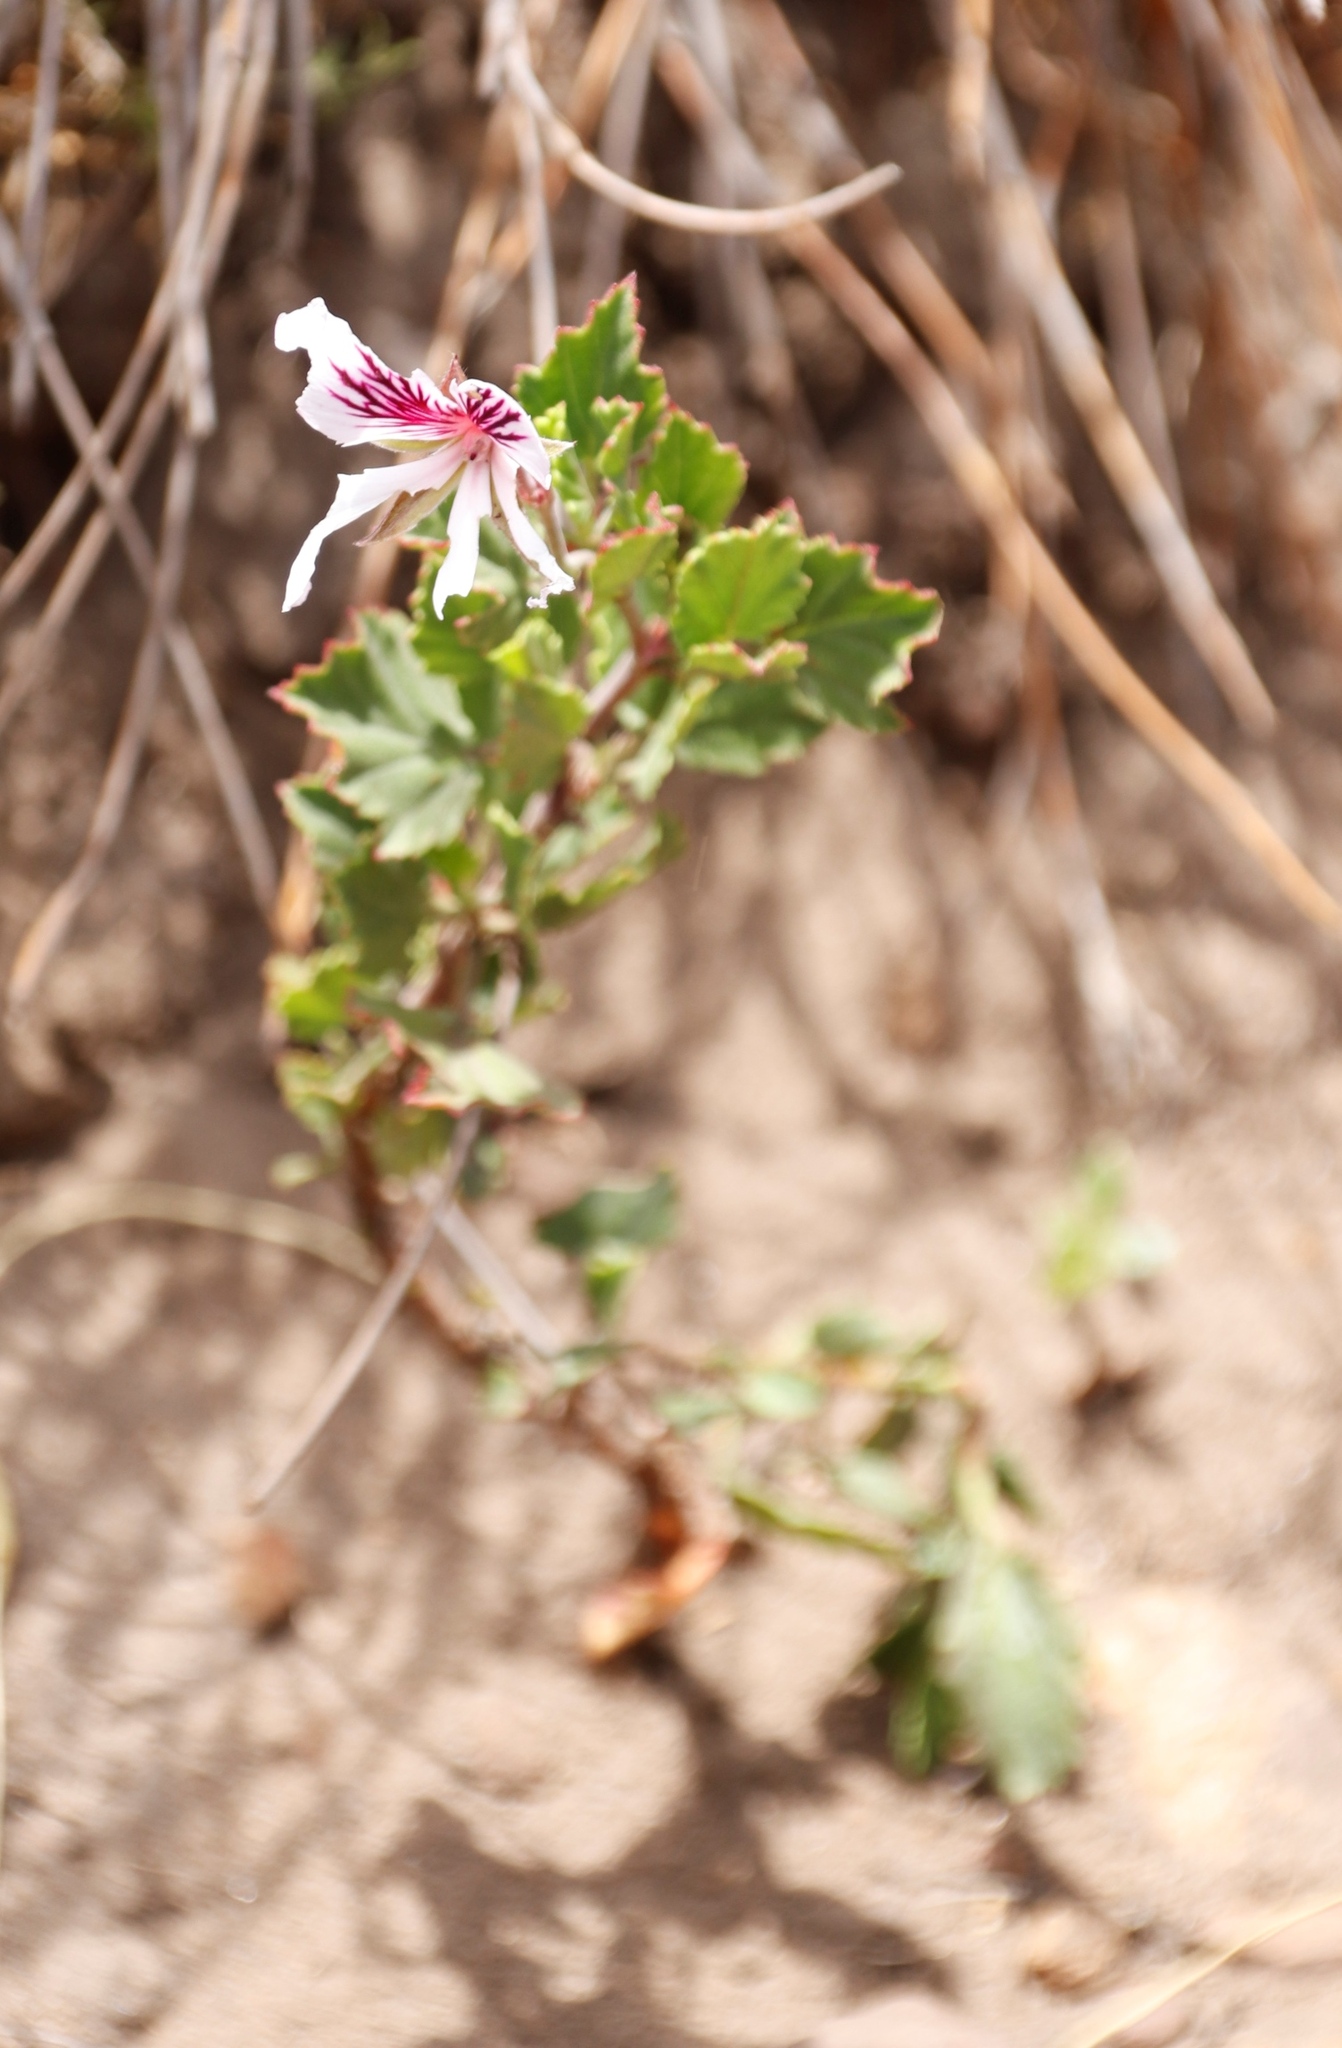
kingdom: Plantae
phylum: Tracheophyta
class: Magnoliopsida
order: Geraniales
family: Geraniaceae
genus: Pelargonium
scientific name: Pelargonium betulinum
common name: Birch-leaf pelargonium
